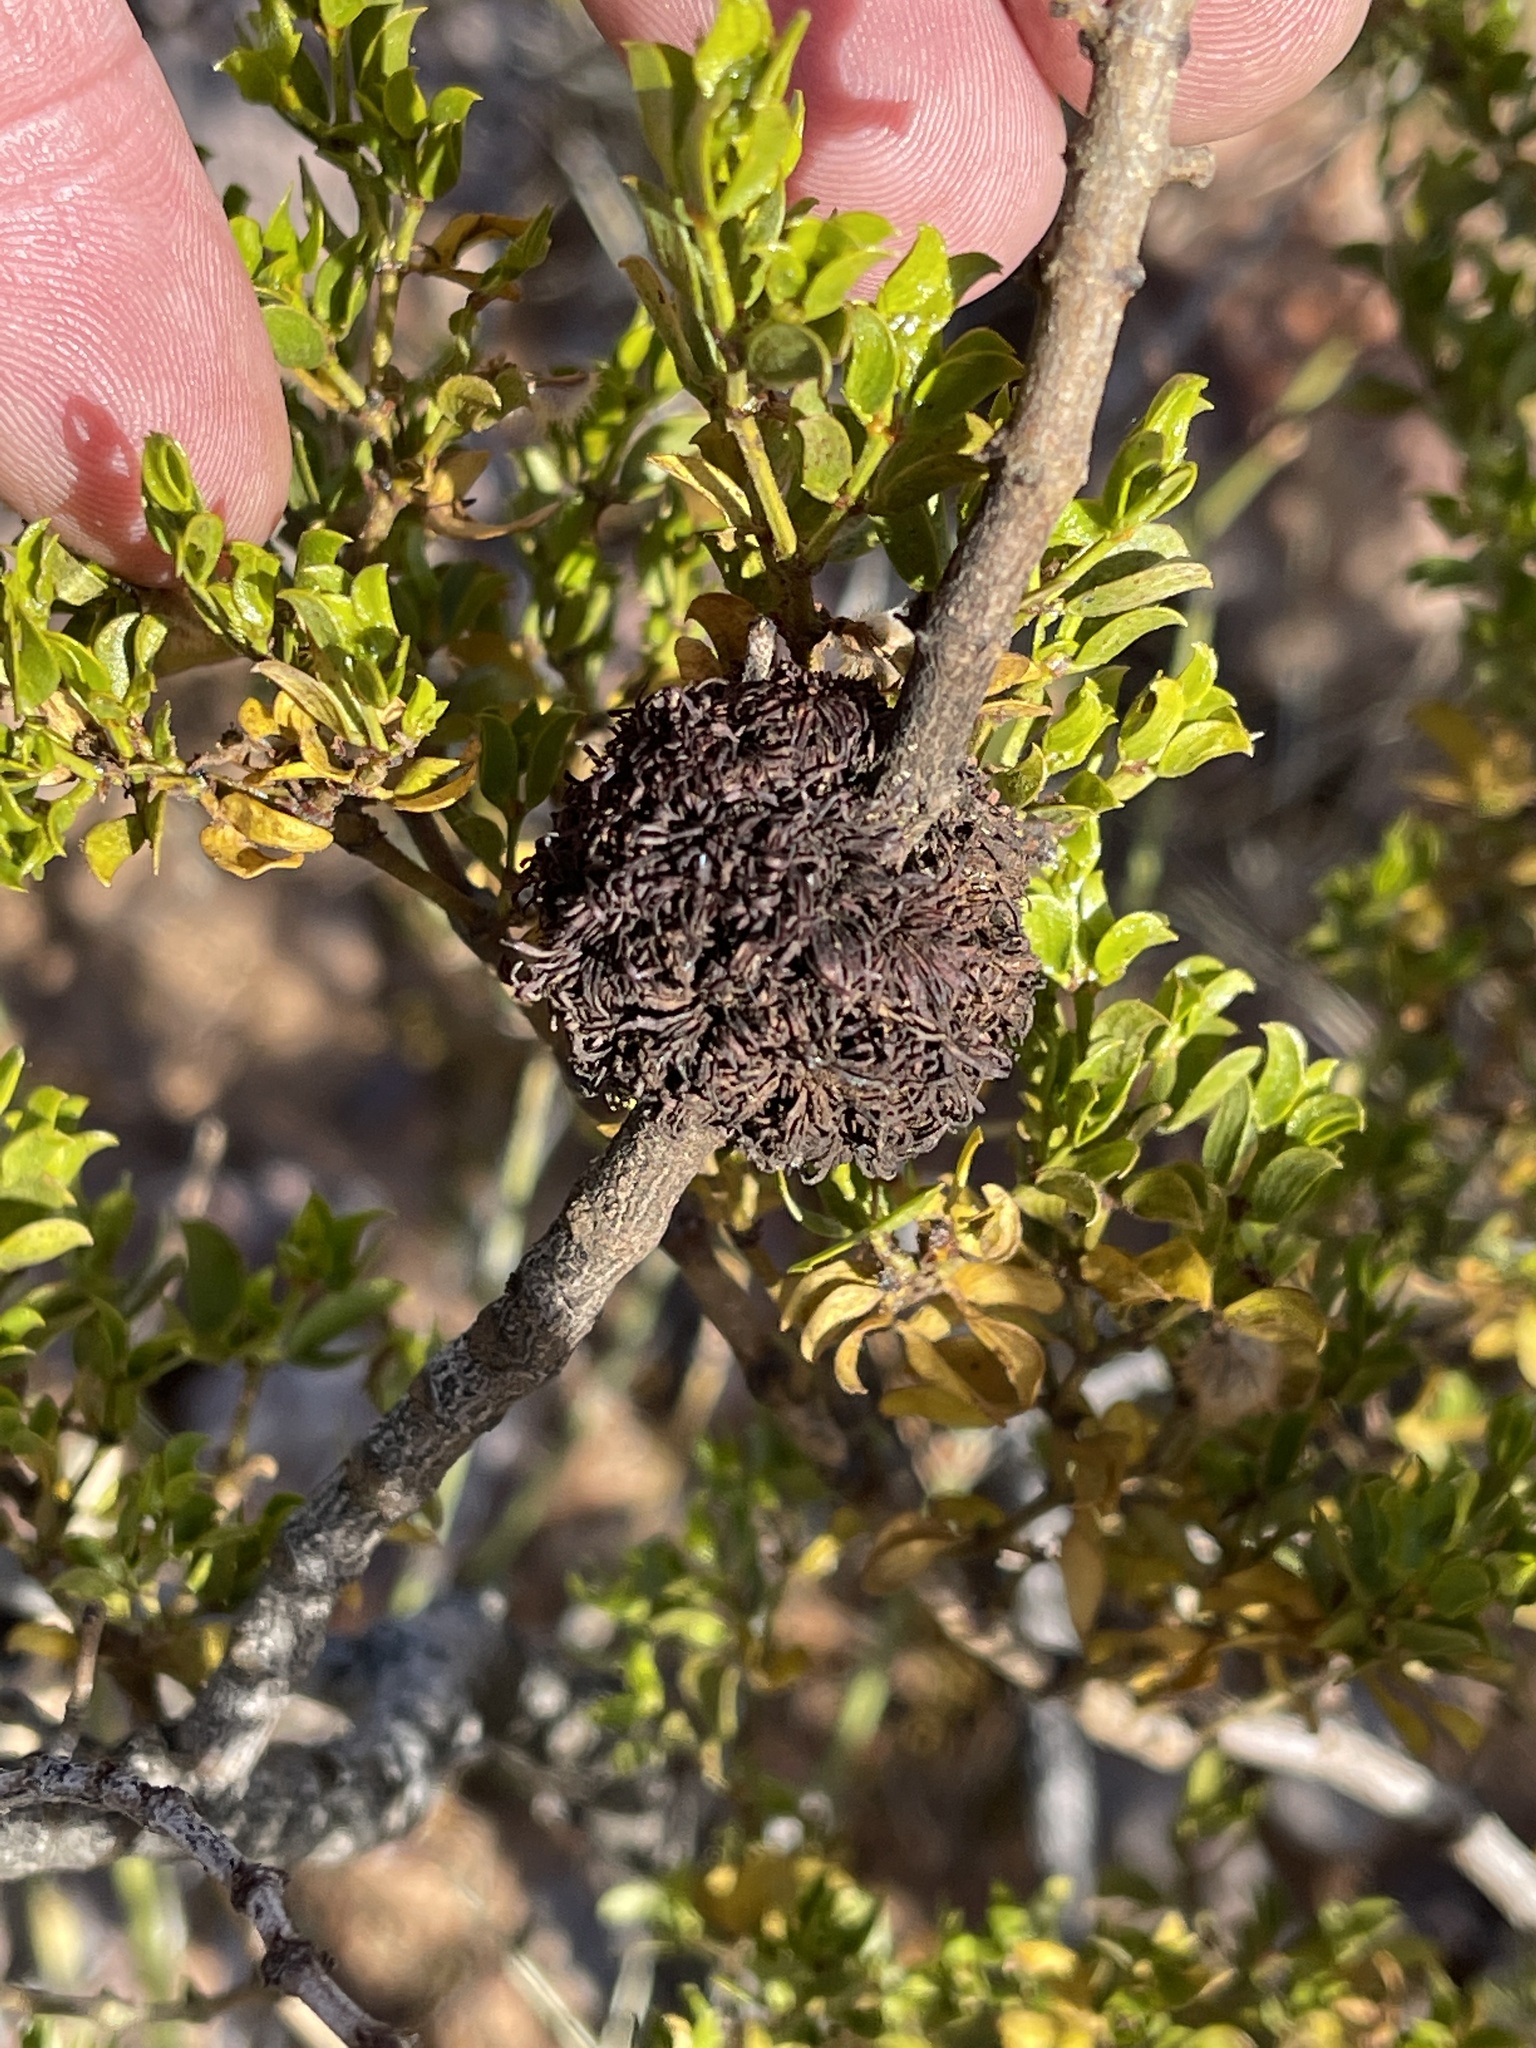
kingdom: Animalia
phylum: Arthropoda
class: Insecta
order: Diptera
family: Cecidomyiidae
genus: Asphondylia
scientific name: Asphondylia auripila
